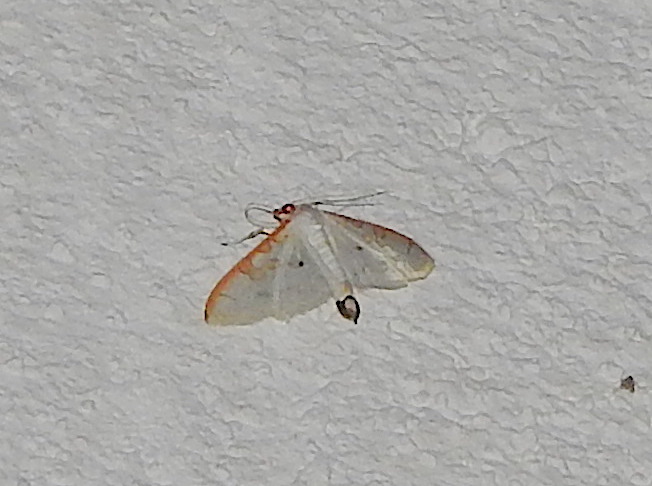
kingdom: Animalia
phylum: Arthropoda
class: Insecta
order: Lepidoptera
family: Crambidae
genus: Palpita
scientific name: Palpita
